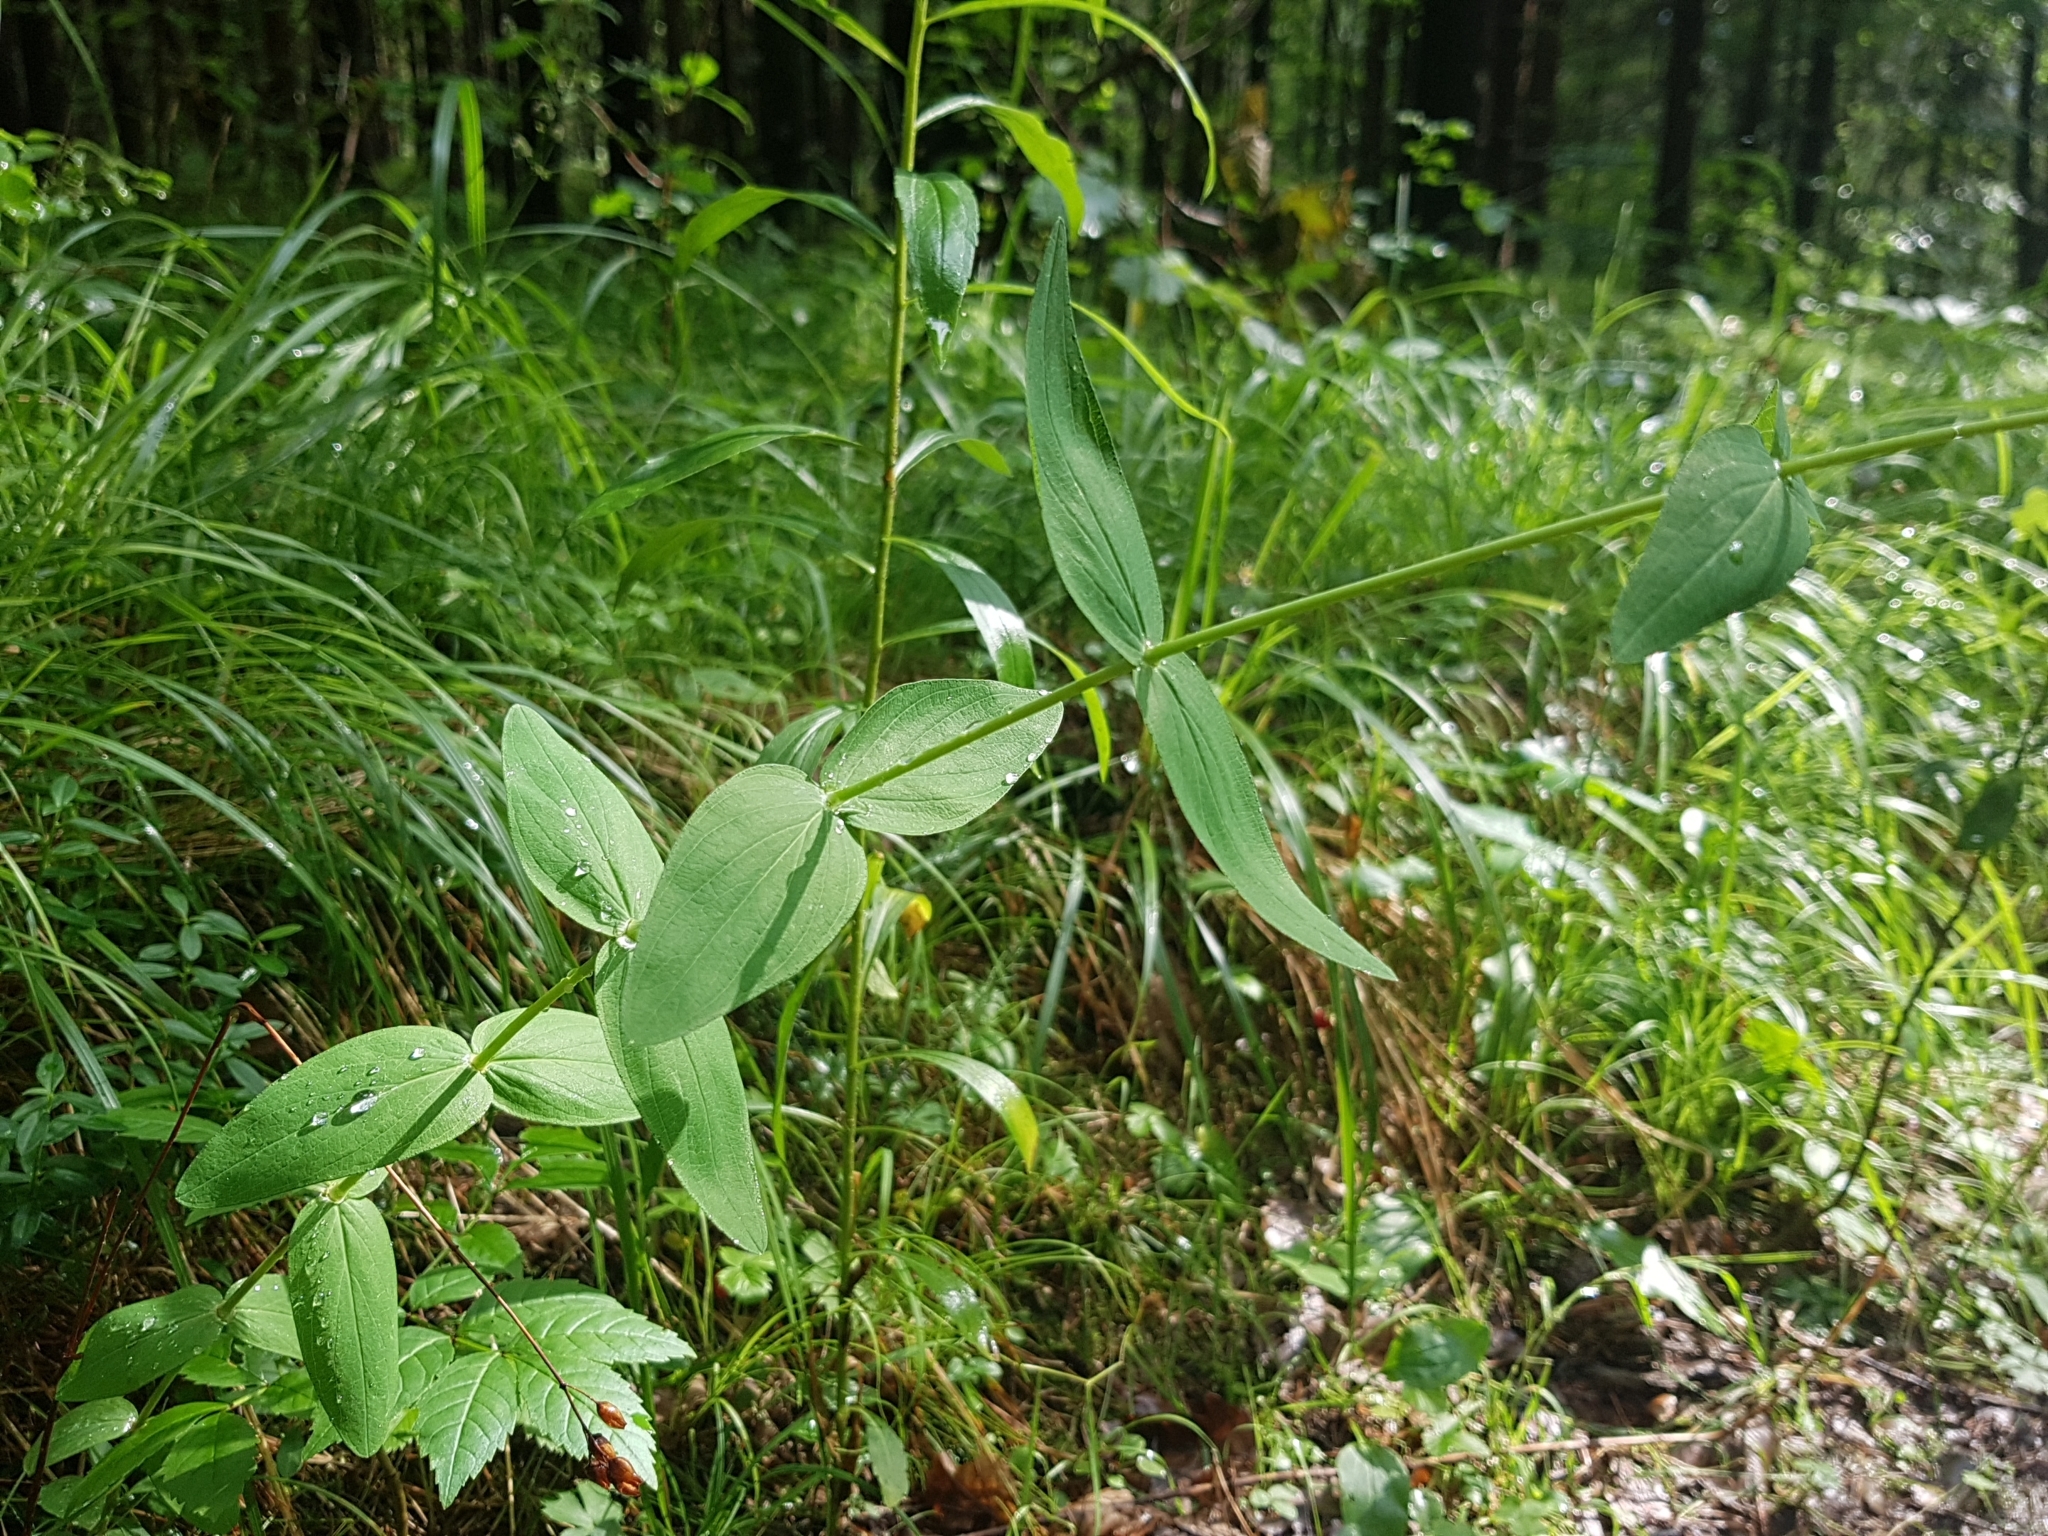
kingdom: Plantae
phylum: Tracheophyta
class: Magnoliopsida
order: Malpighiales
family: Hypericaceae
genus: Hypericum
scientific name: Hypericum montanum
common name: Pale st. john's-wort
